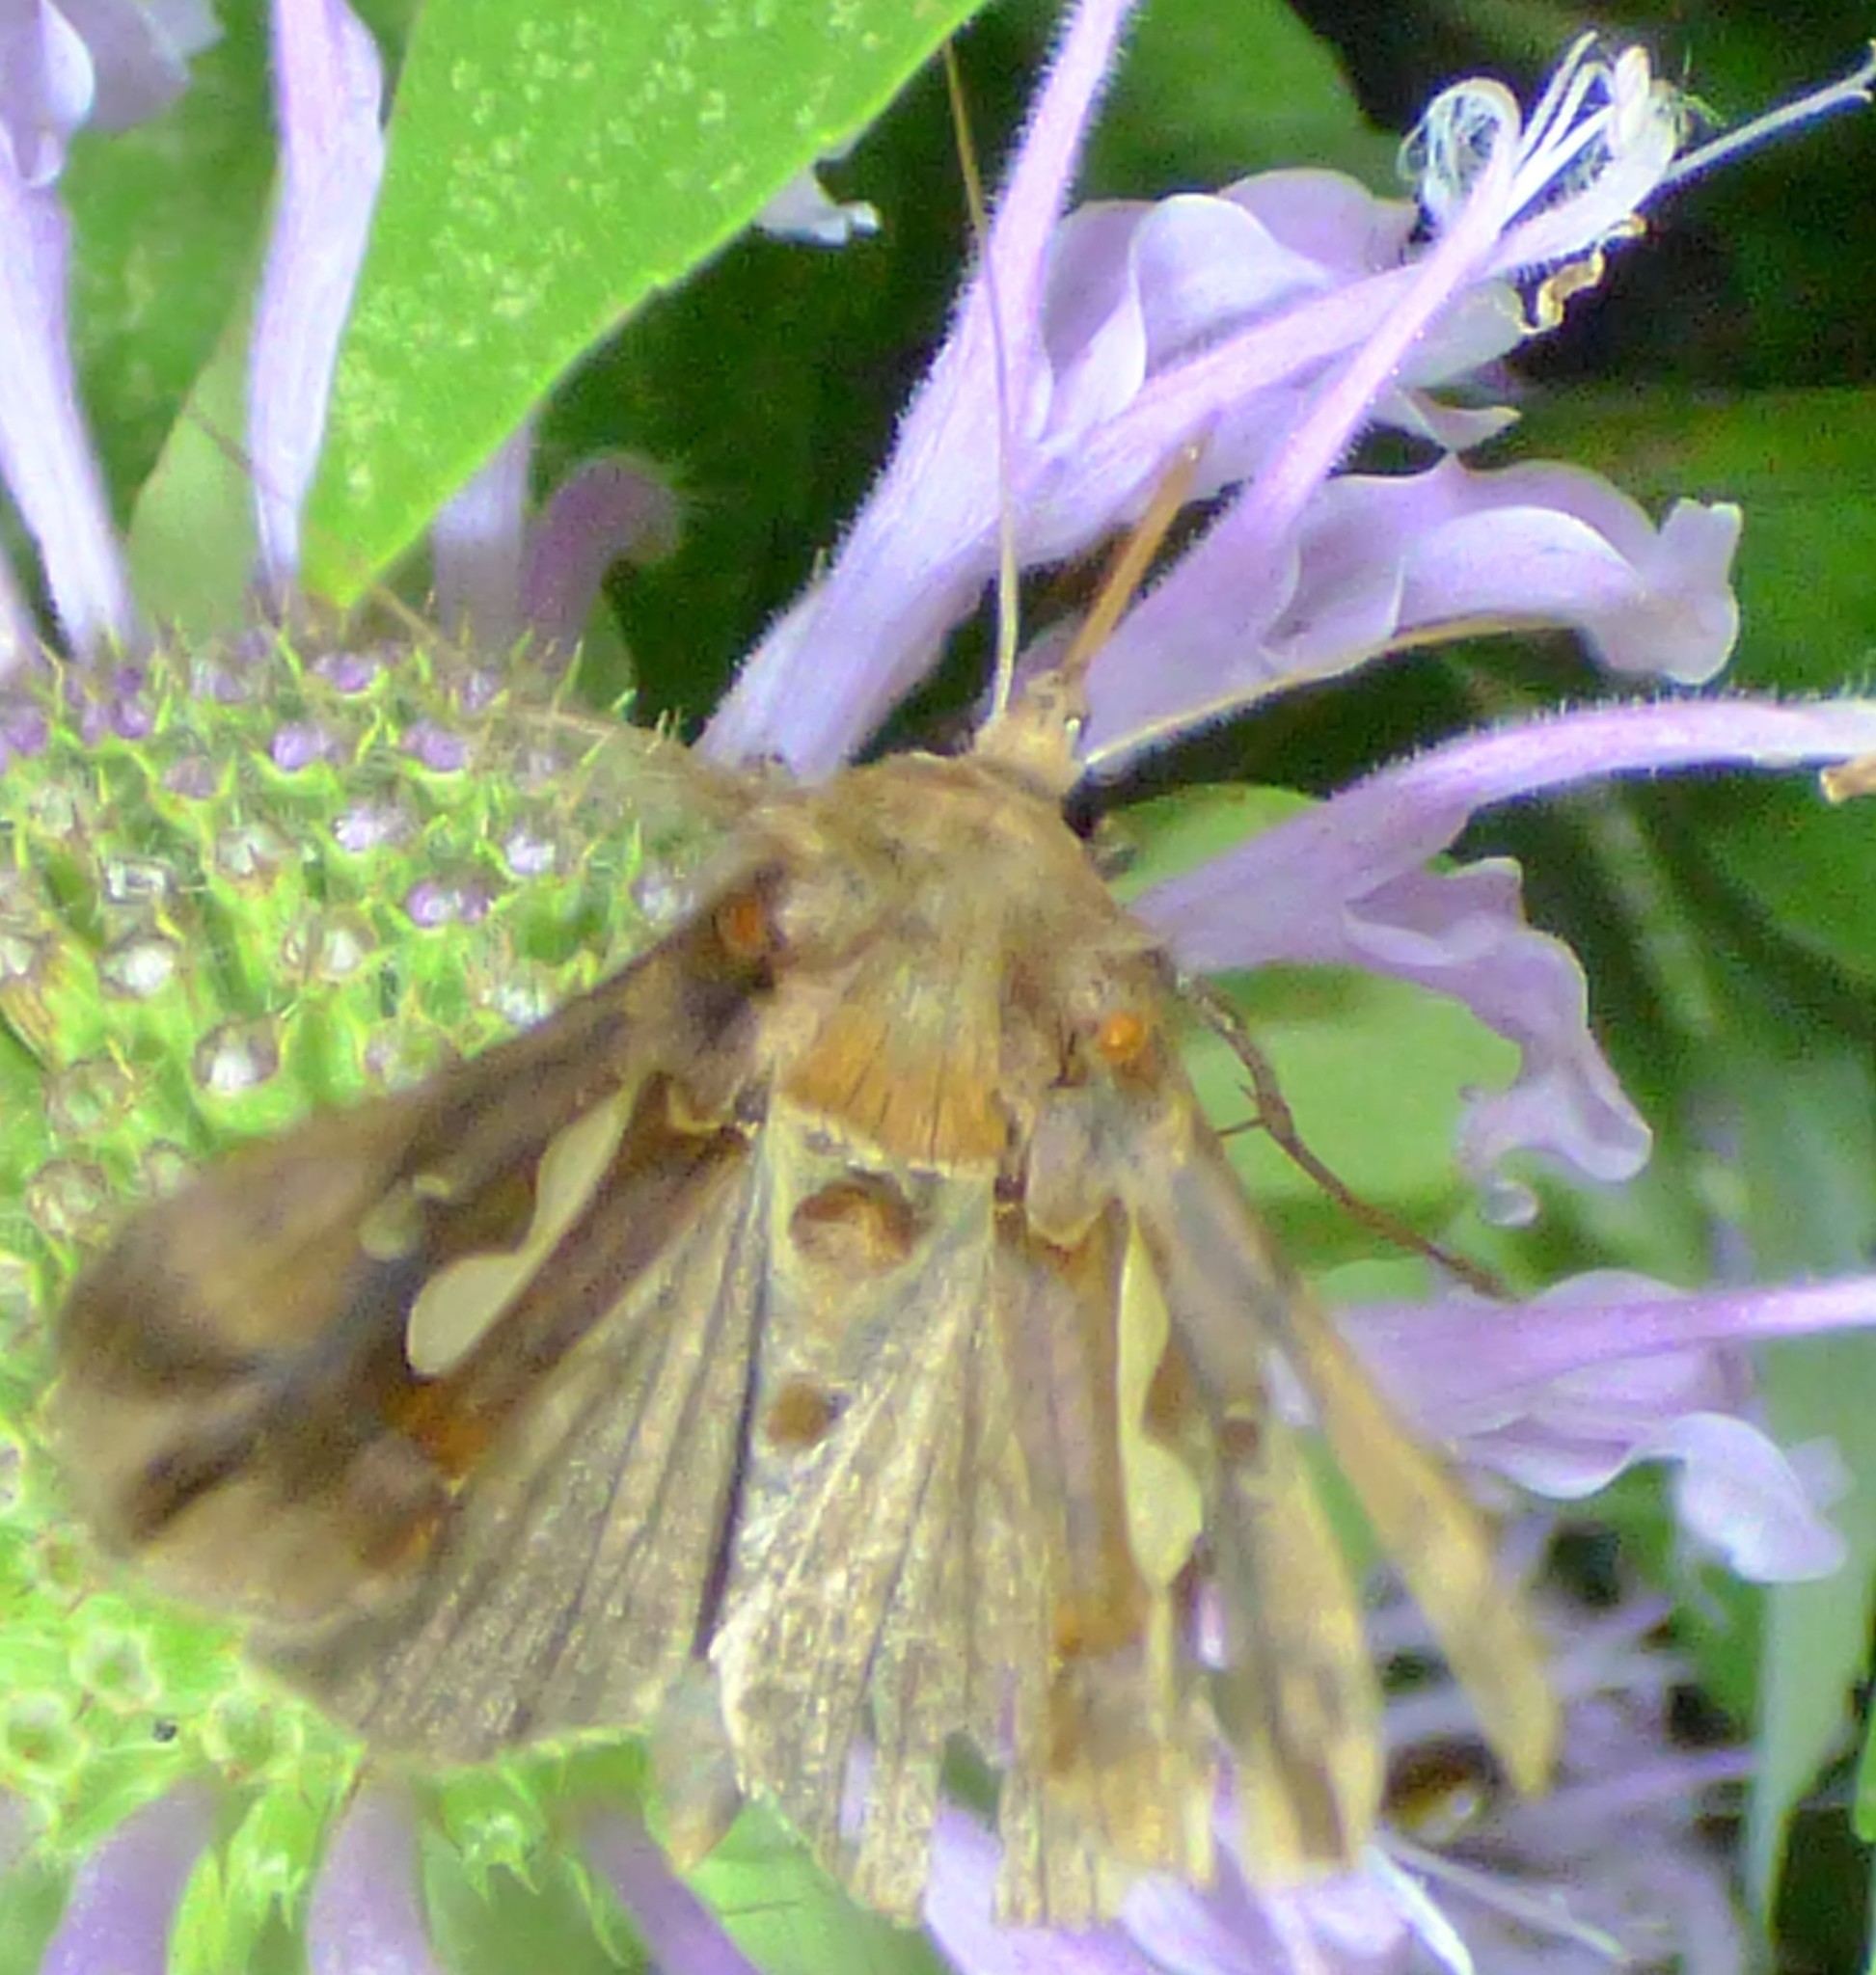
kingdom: Animalia
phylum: Arthropoda
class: Insecta
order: Lepidoptera
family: Noctuidae
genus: Megalographa
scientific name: Megalographa biloba
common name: Cutworm
